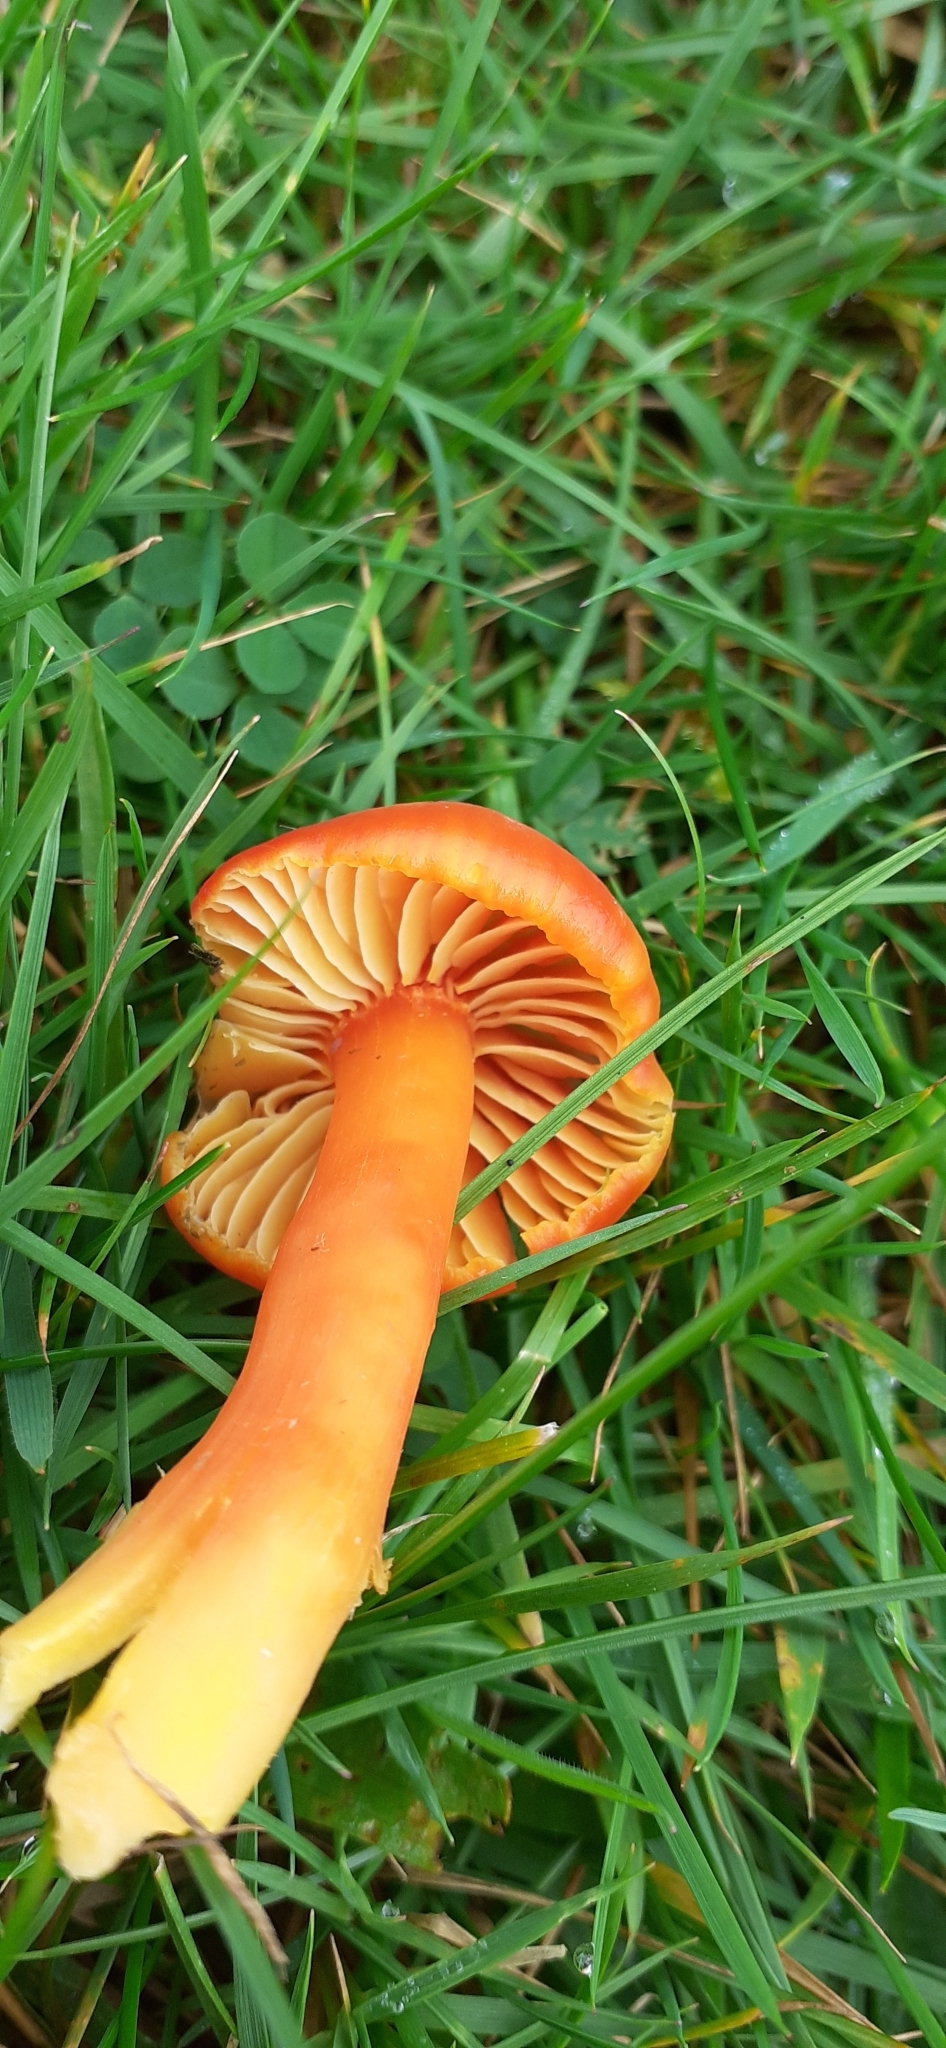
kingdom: Fungi
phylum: Basidiomycota
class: Agaricomycetes
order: Agaricales
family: Hygrophoraceae
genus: Hygrocybe
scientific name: Hygrocybe coccinea
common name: Scarlet hood
